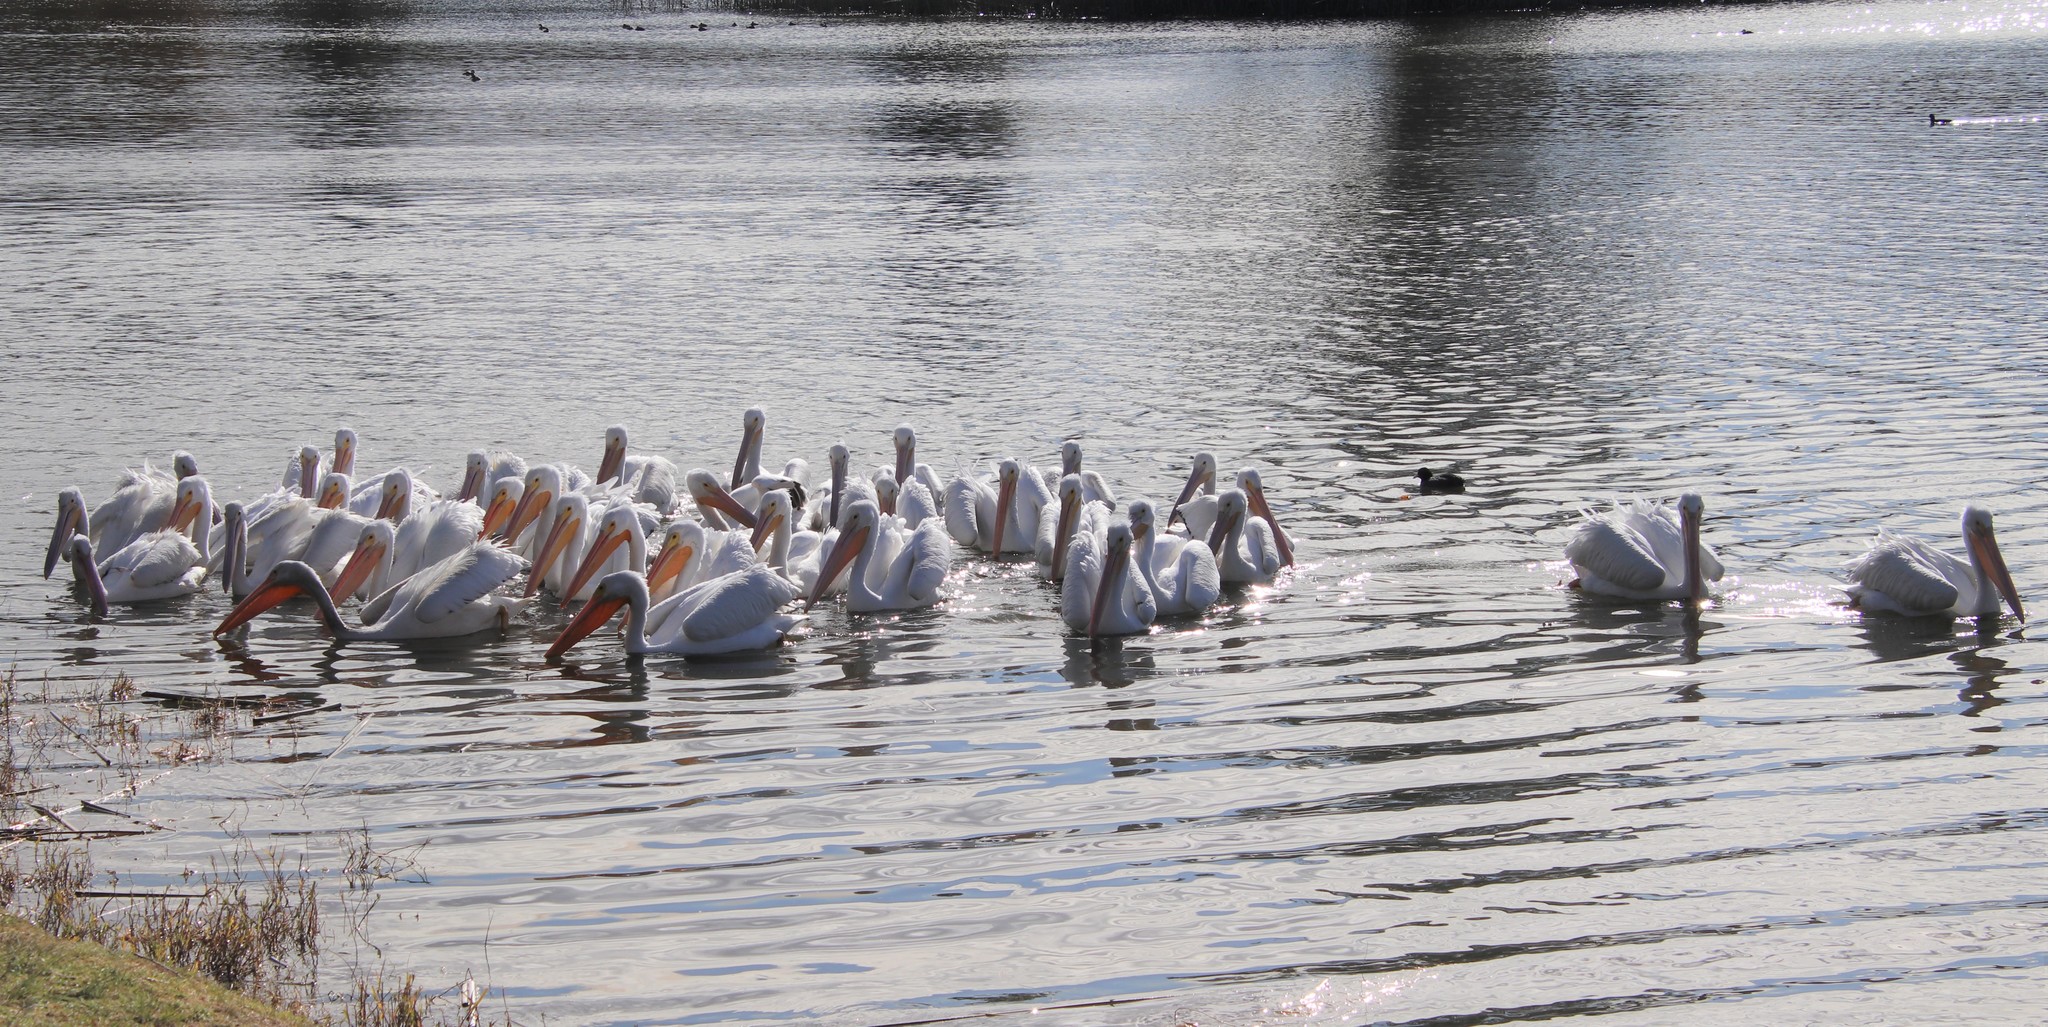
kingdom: Animalia
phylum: Chordata
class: Aves
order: Pelecaniformes
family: Pelecanidae
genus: Pelecanus
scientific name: Pelecanus erythrorhynchos
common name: American white pelican
